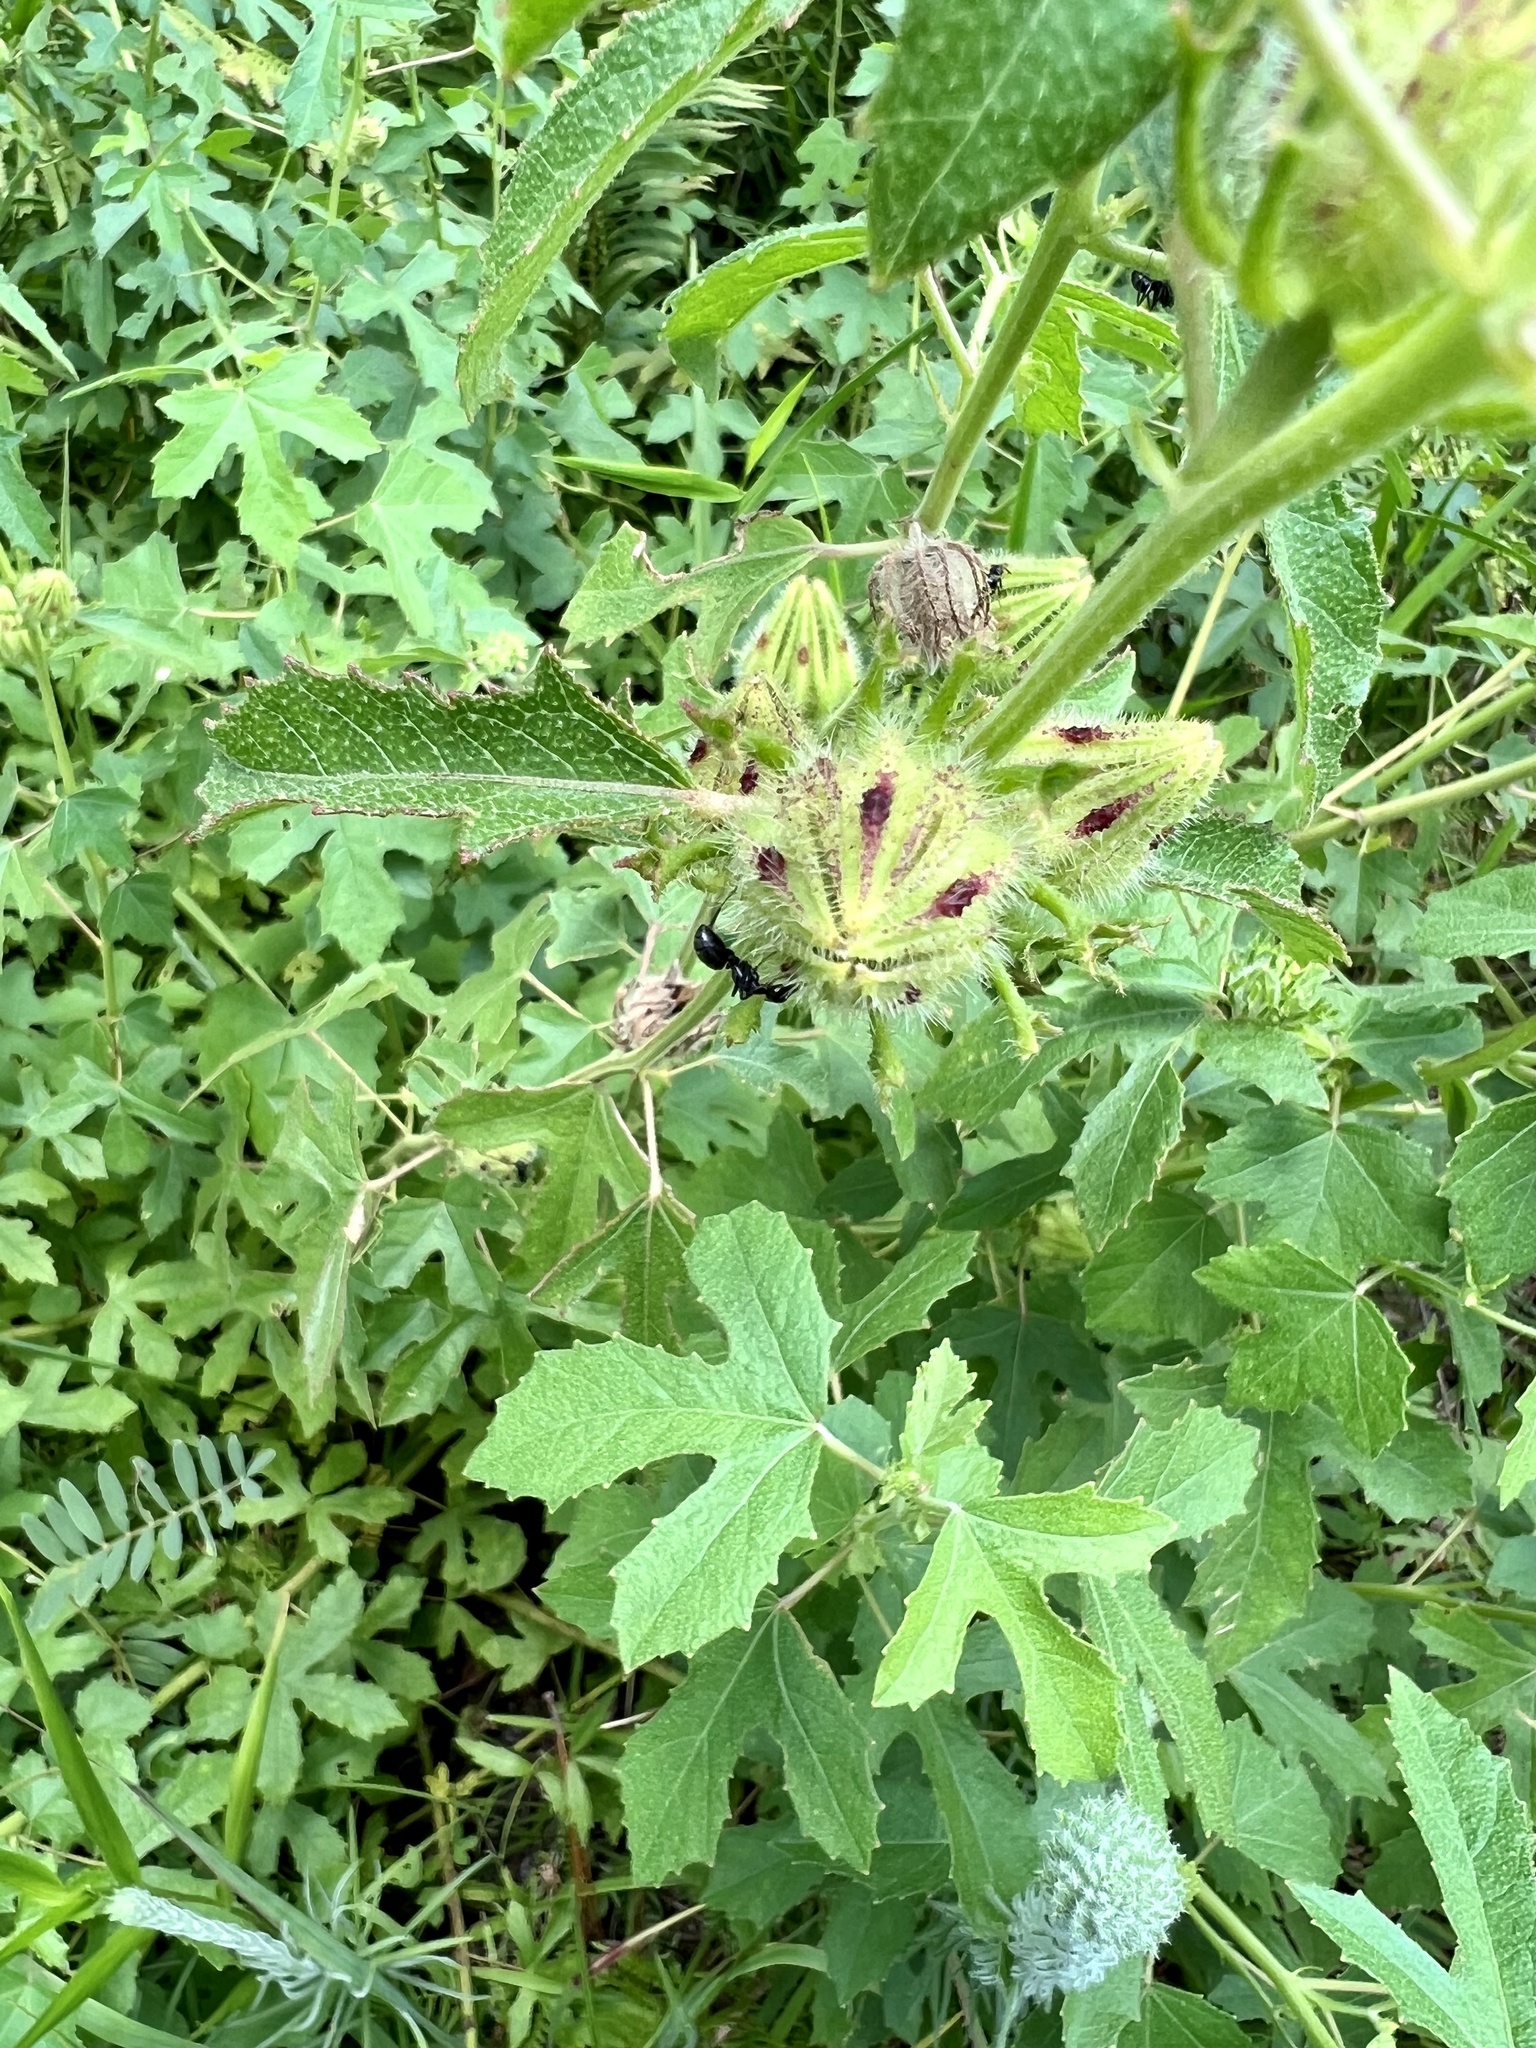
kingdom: Plantae
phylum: Tracheophyta
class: Magnoliopsida
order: Malvales
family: Malvaceae
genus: Hibiscus
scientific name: Hibiscus aculeatus
